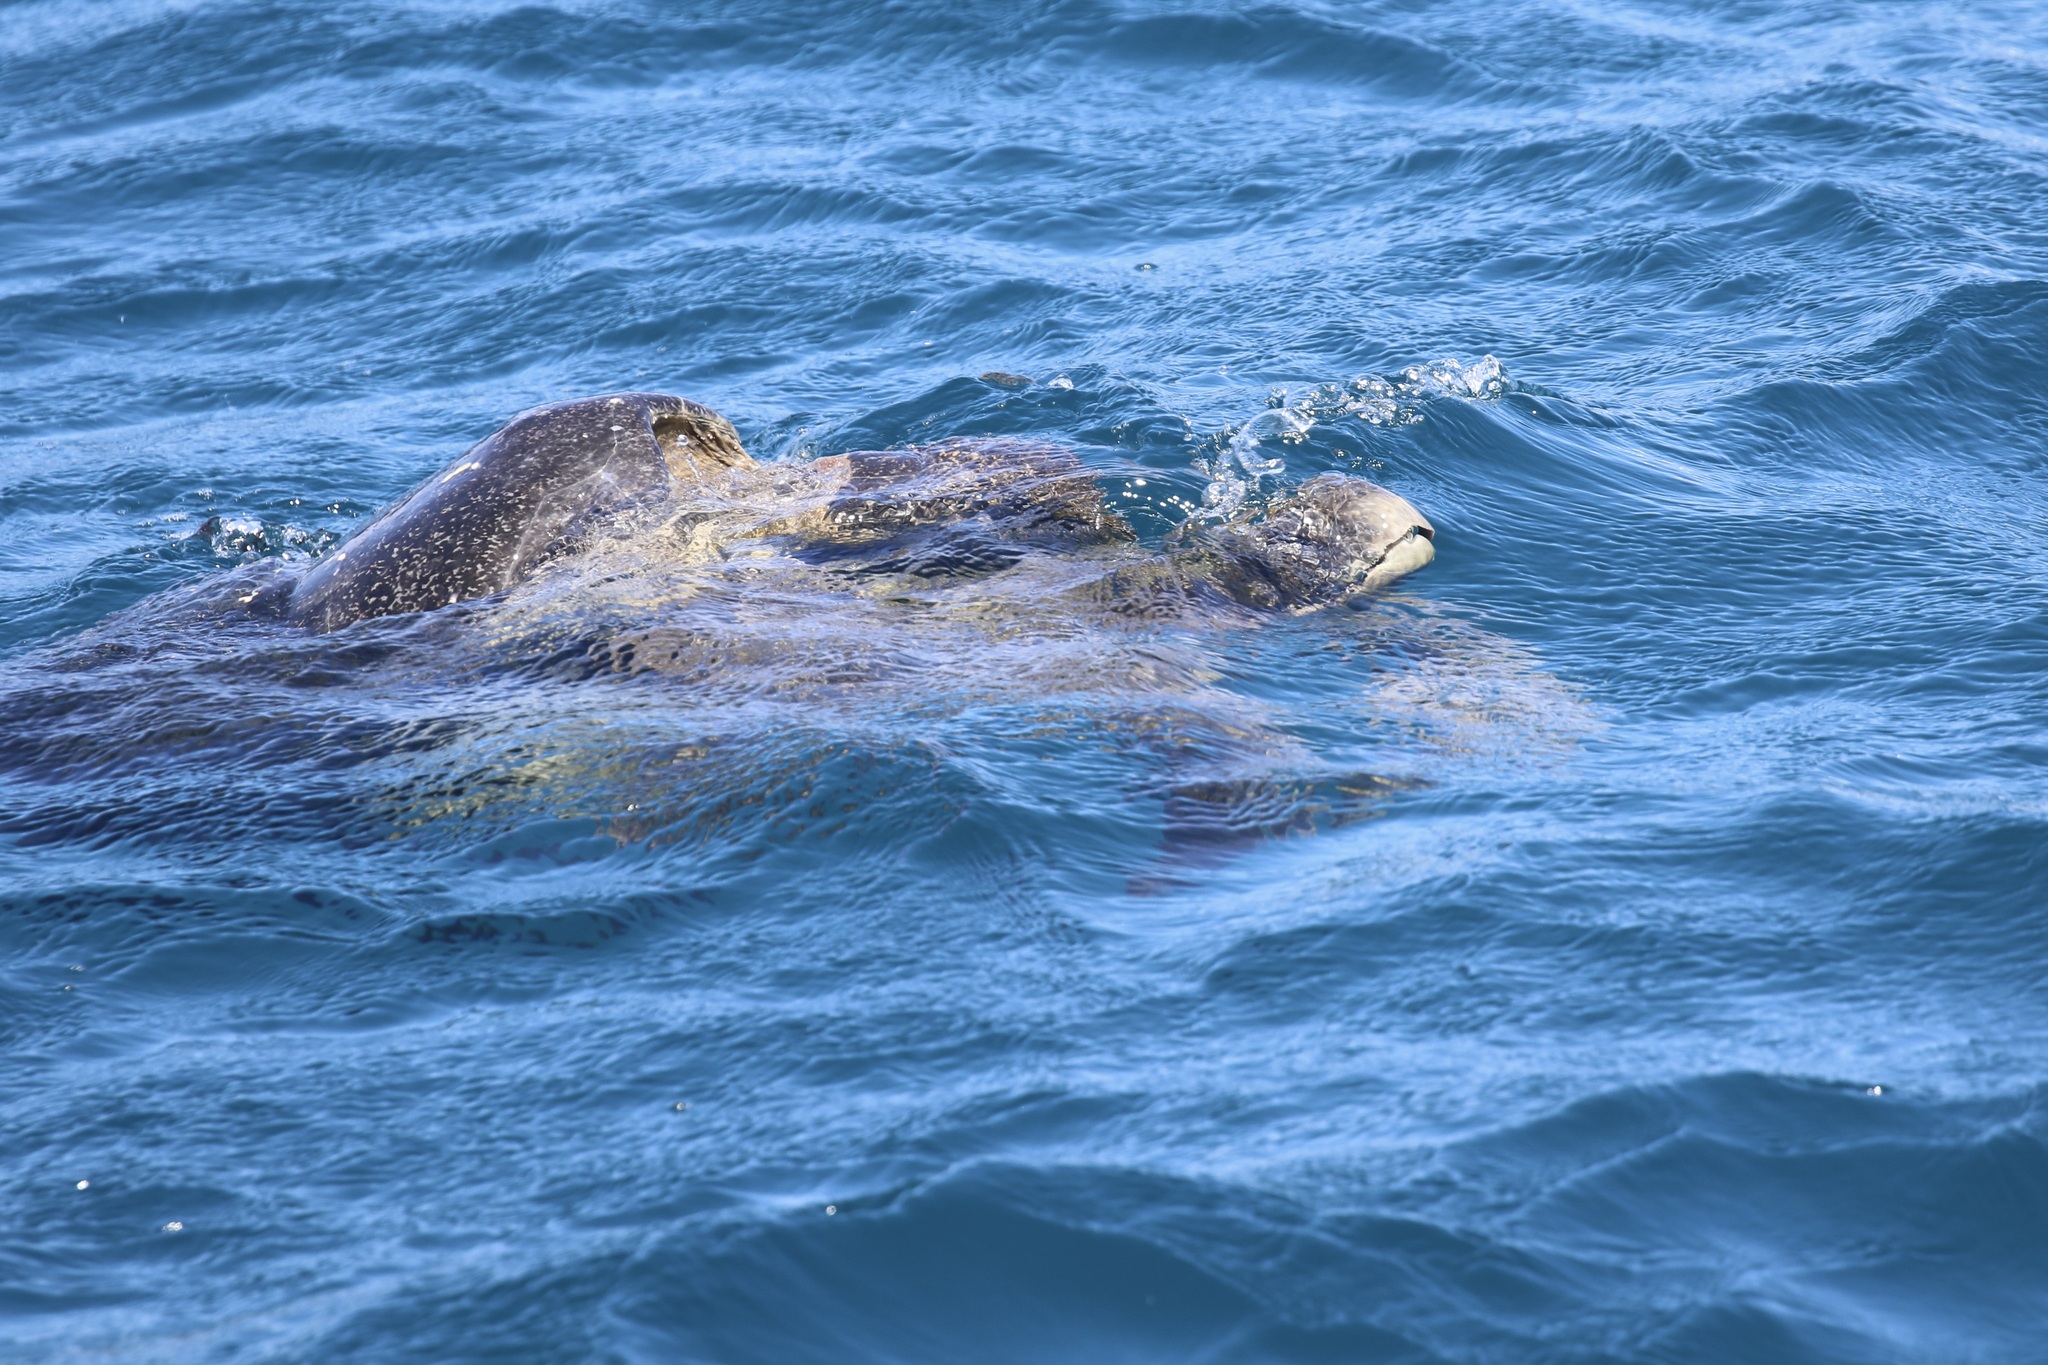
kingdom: Animalia
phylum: Chordata
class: Testudines
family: Cheloniidae
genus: Chelonia
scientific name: Chelonia mydas
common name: Green turtle
